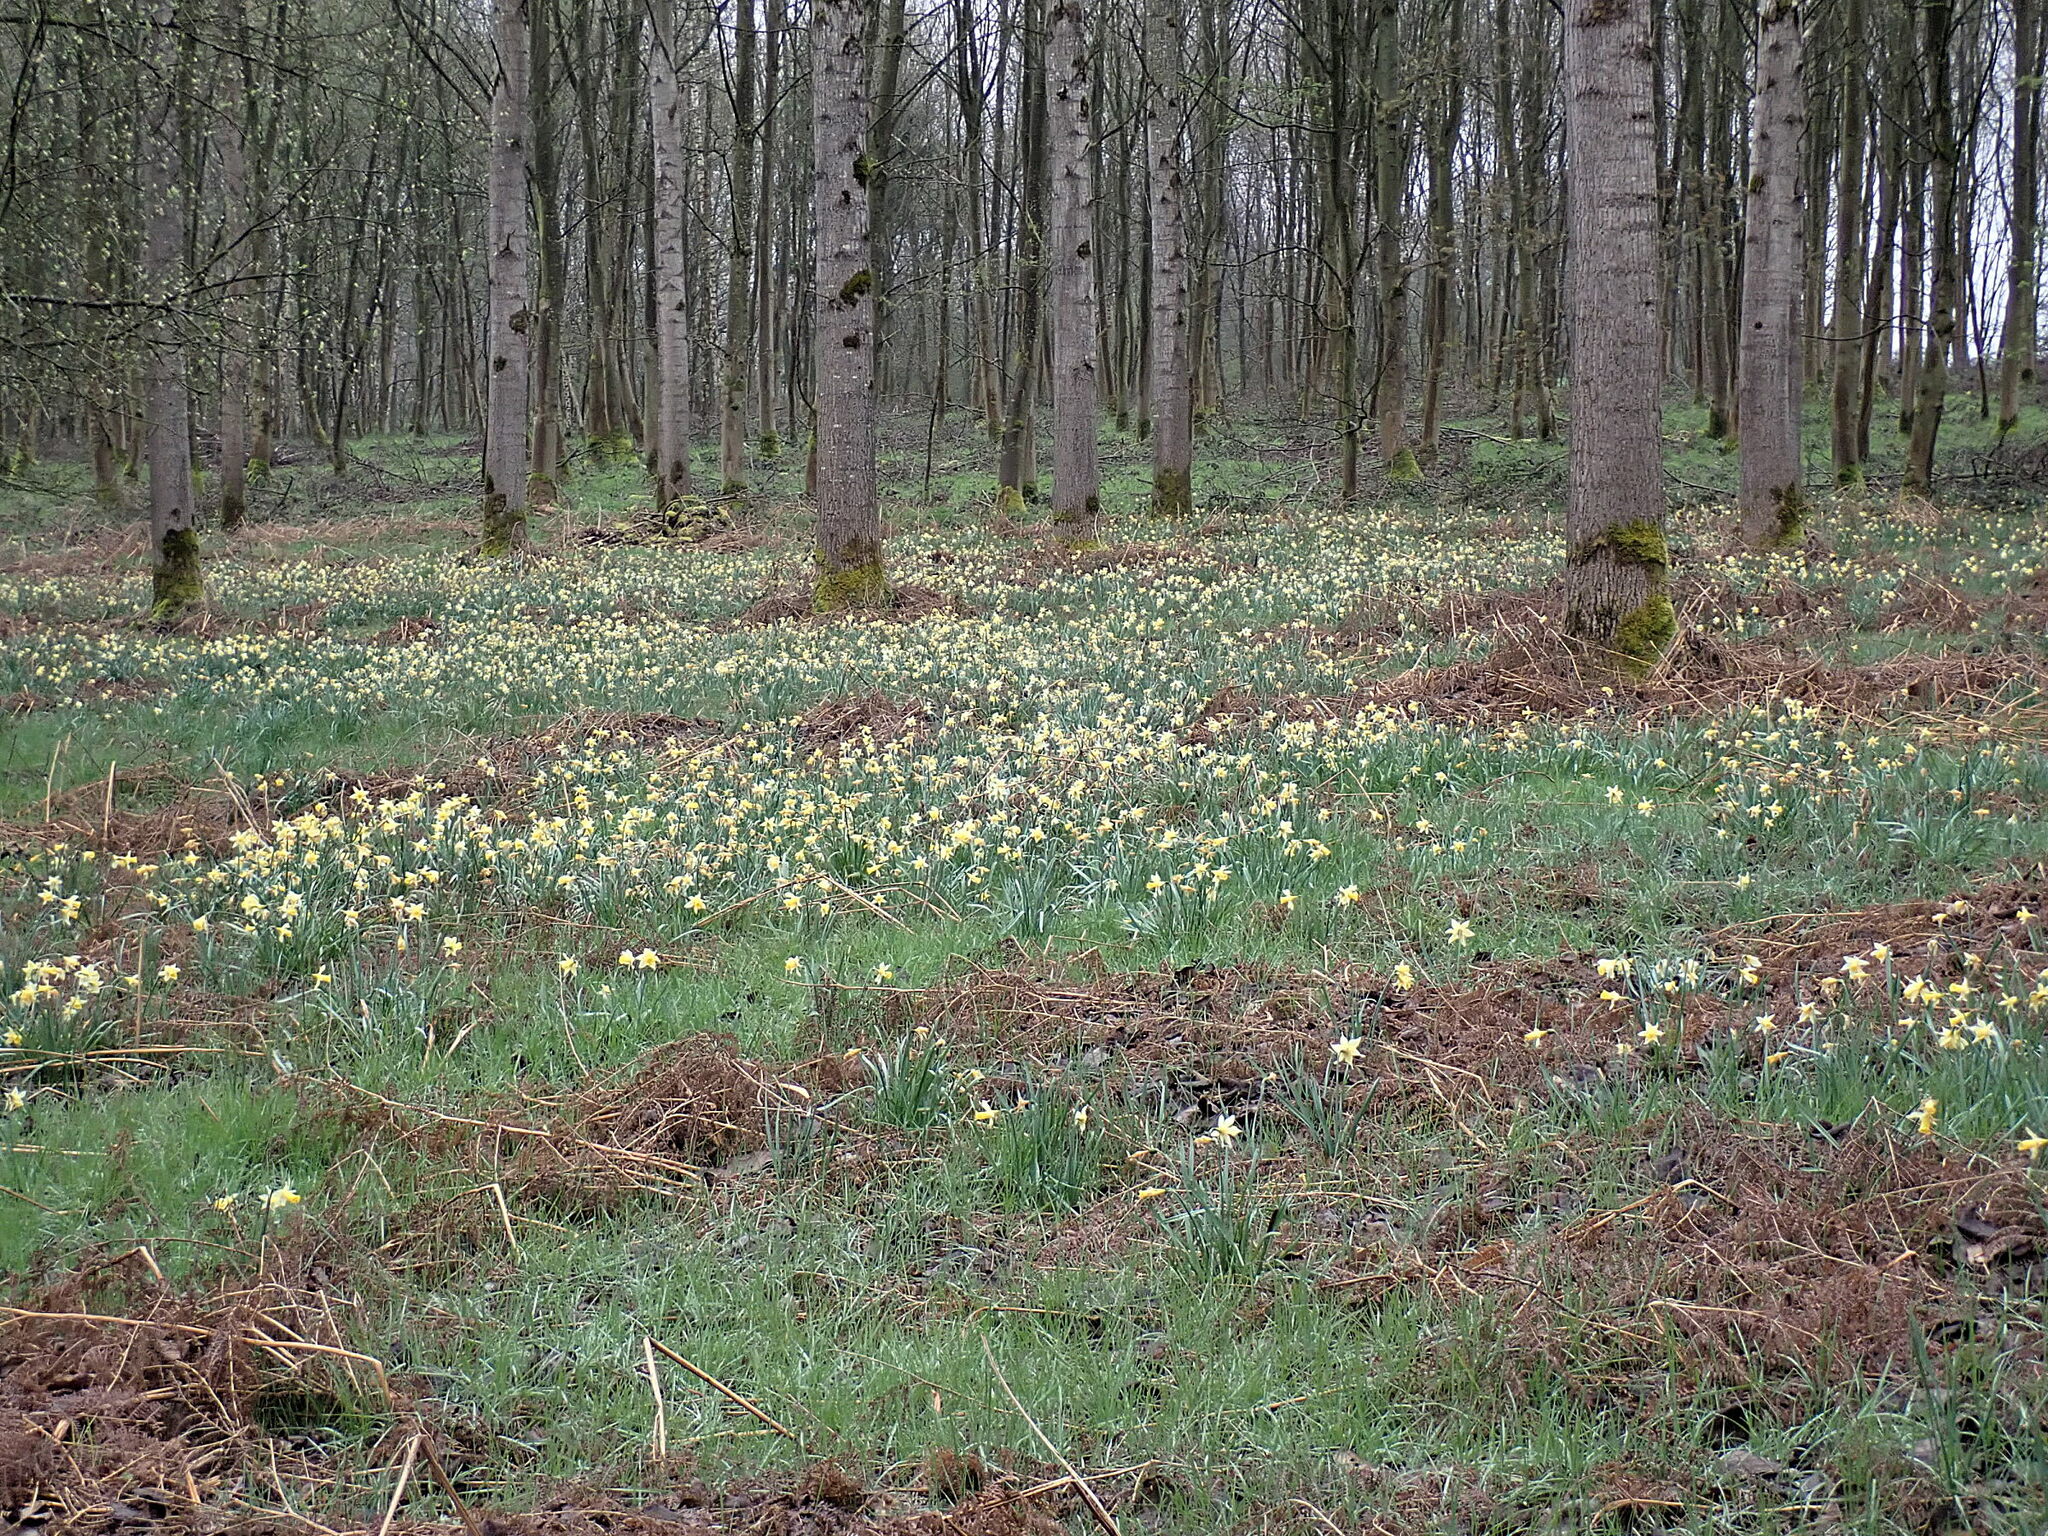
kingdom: Plantae
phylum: Tracheophyta
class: Liliopsida
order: Asparagales
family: Amaryllidaceae
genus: Narcissus
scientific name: Narcissus pseudonarcissus
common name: Daffodil
